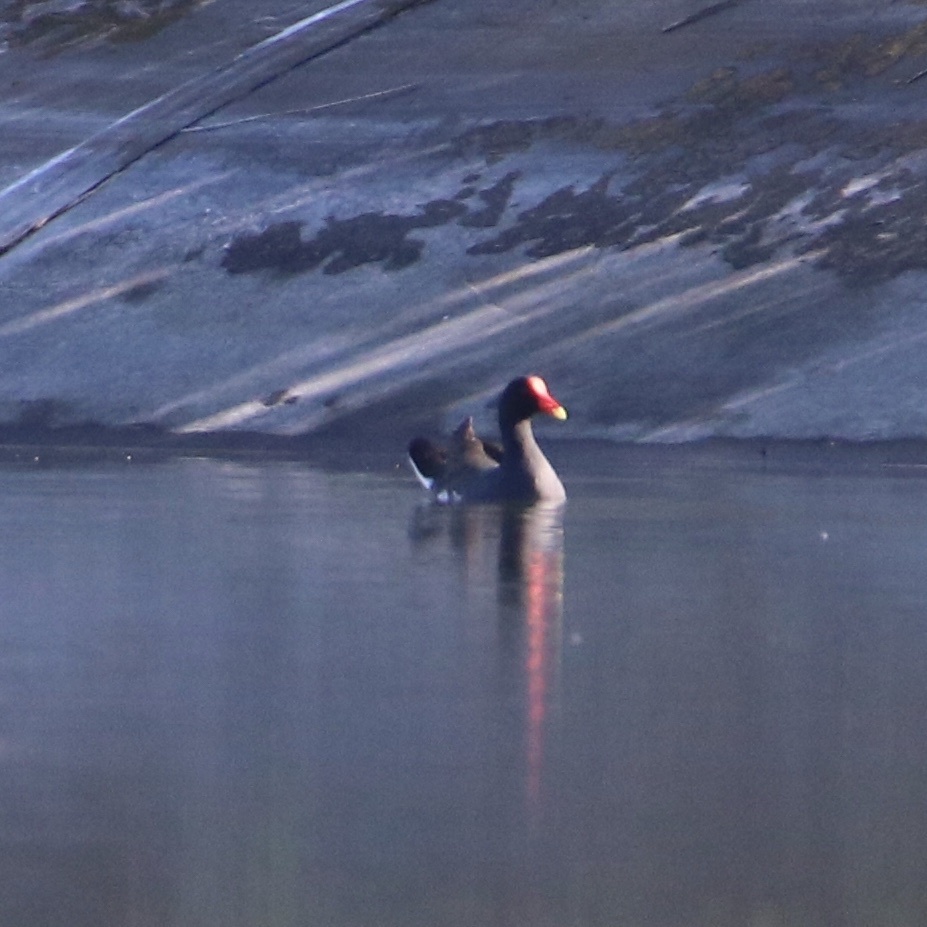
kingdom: Animalia
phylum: Chordata
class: Aves
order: Gruiformes
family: Rallidae
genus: Gallinula
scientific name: Gallinula chloropus
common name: Common moorhen
